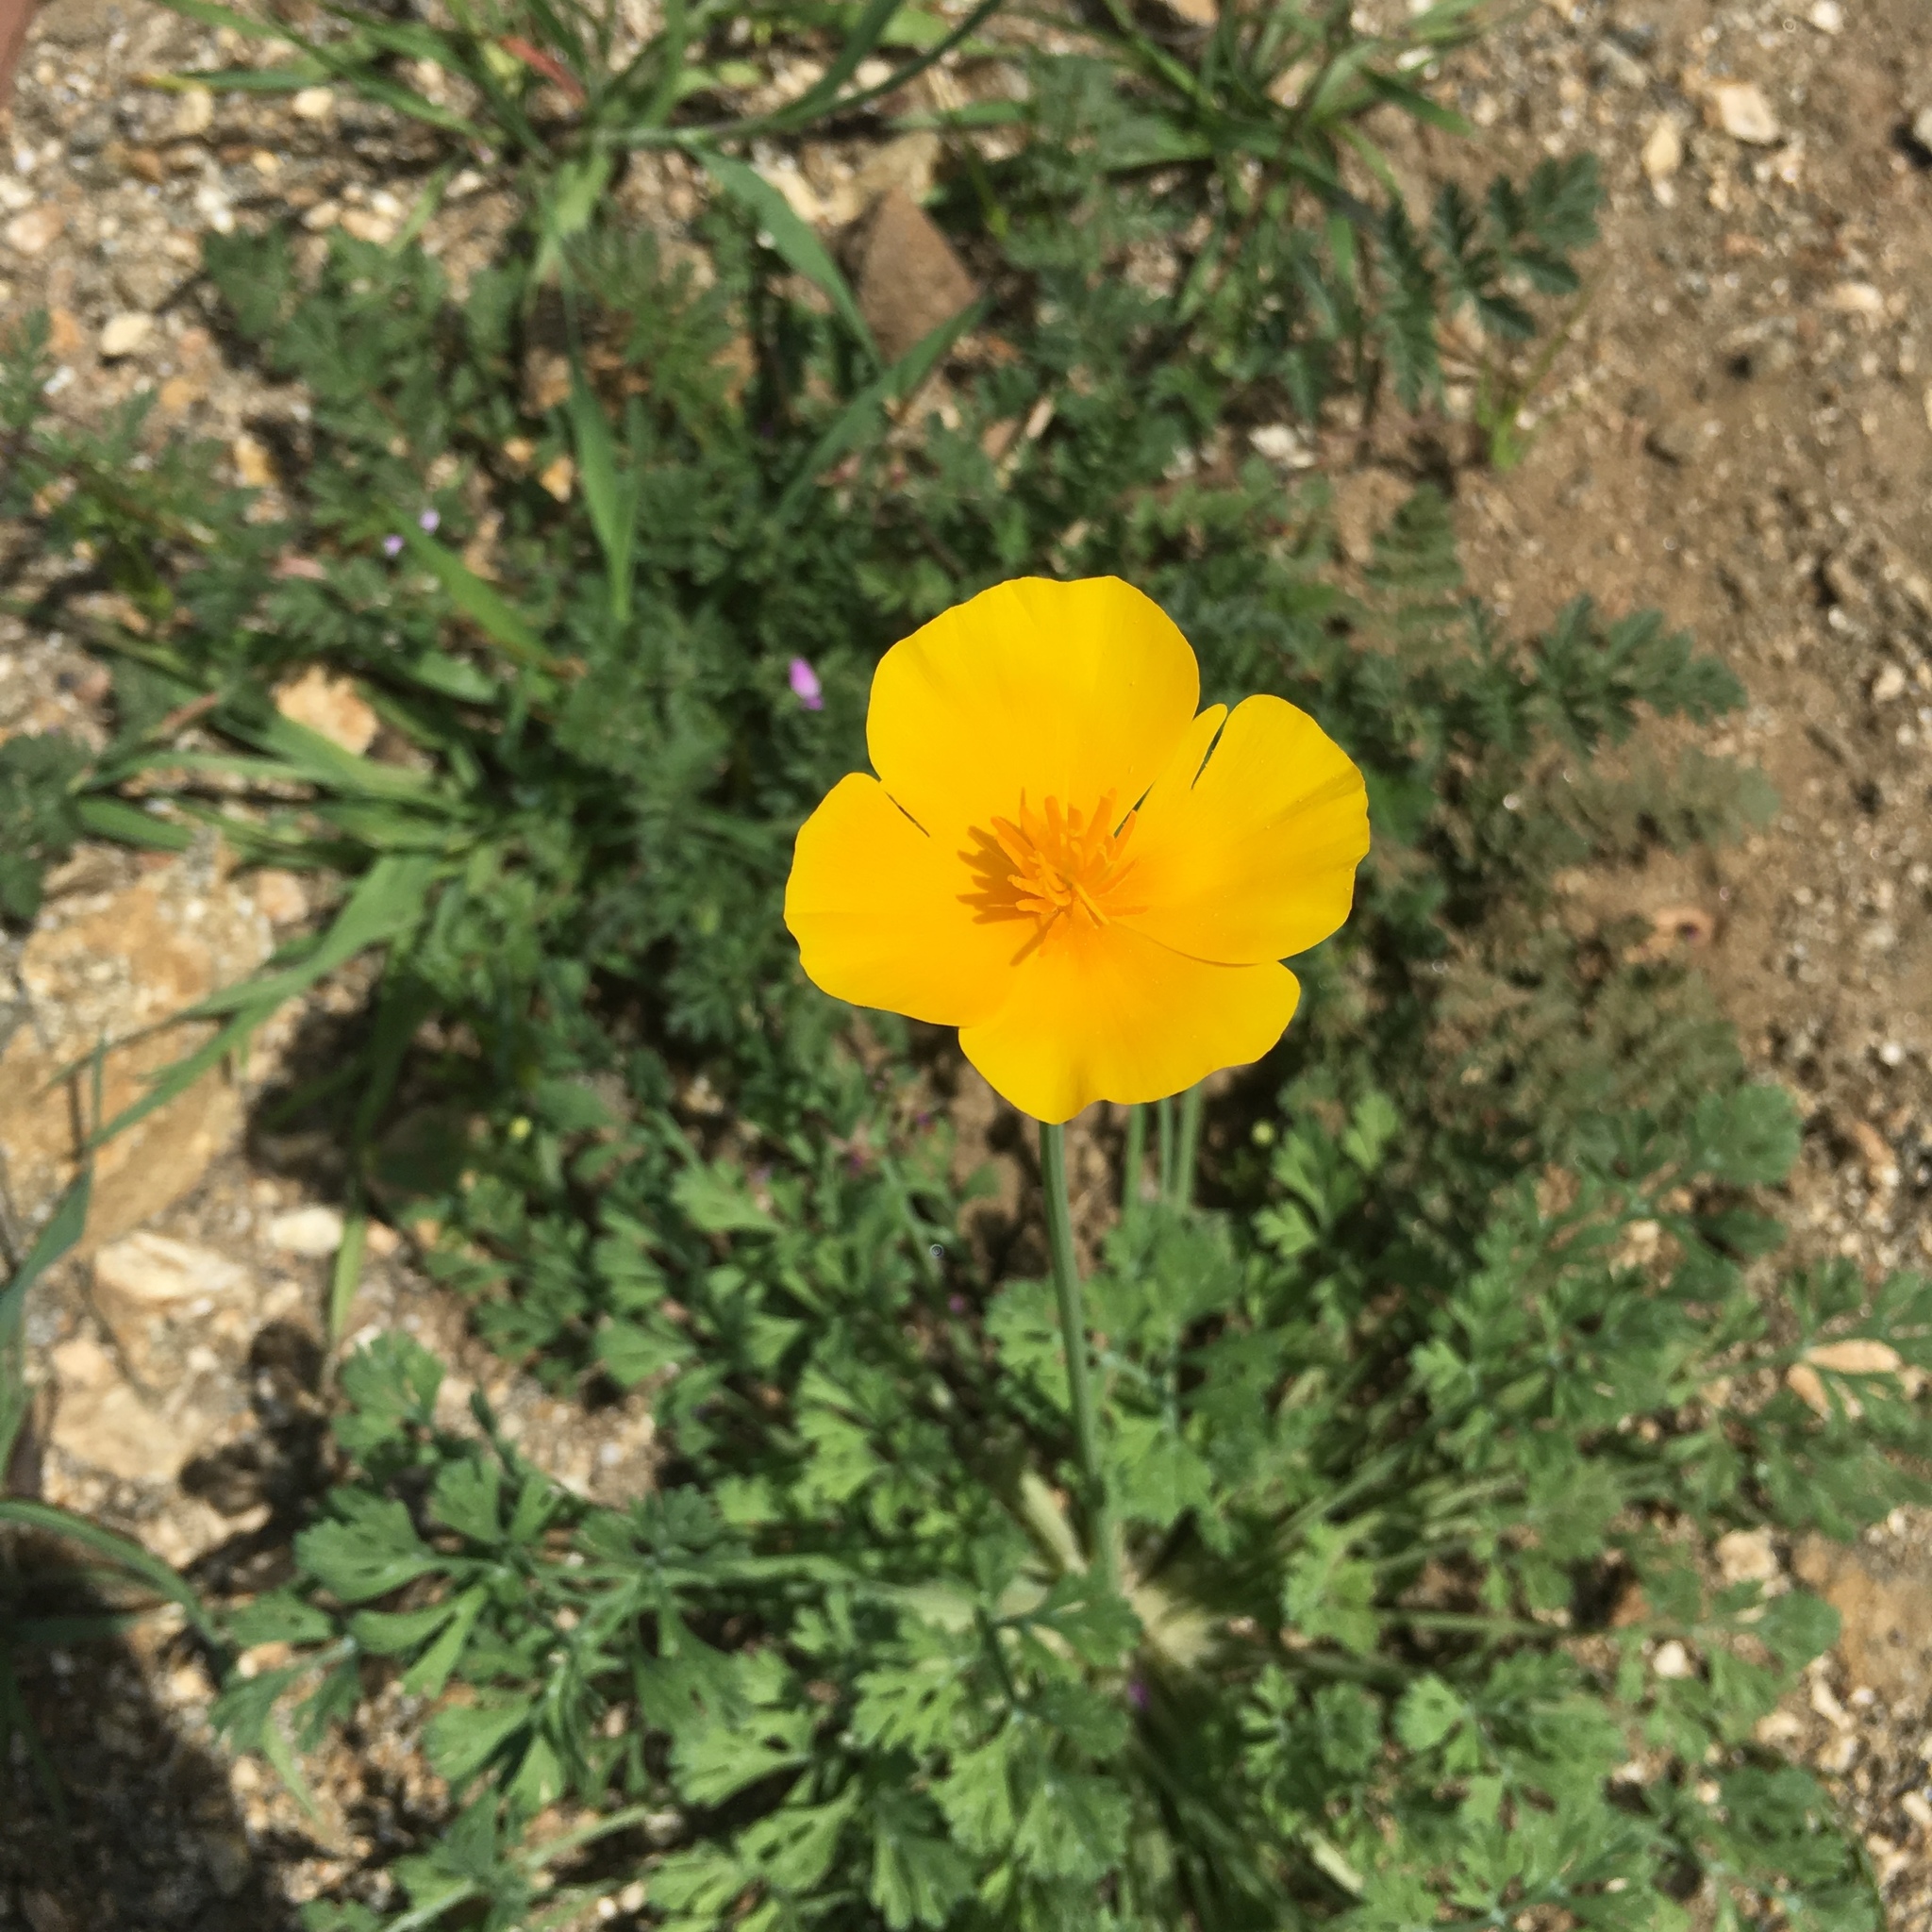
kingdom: Plantae
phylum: Tracheophyta
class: Magnoliopsida
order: Ranunculales
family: Papaveraceae
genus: Eschscholzia
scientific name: Eschscholzia californica
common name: California poppy
